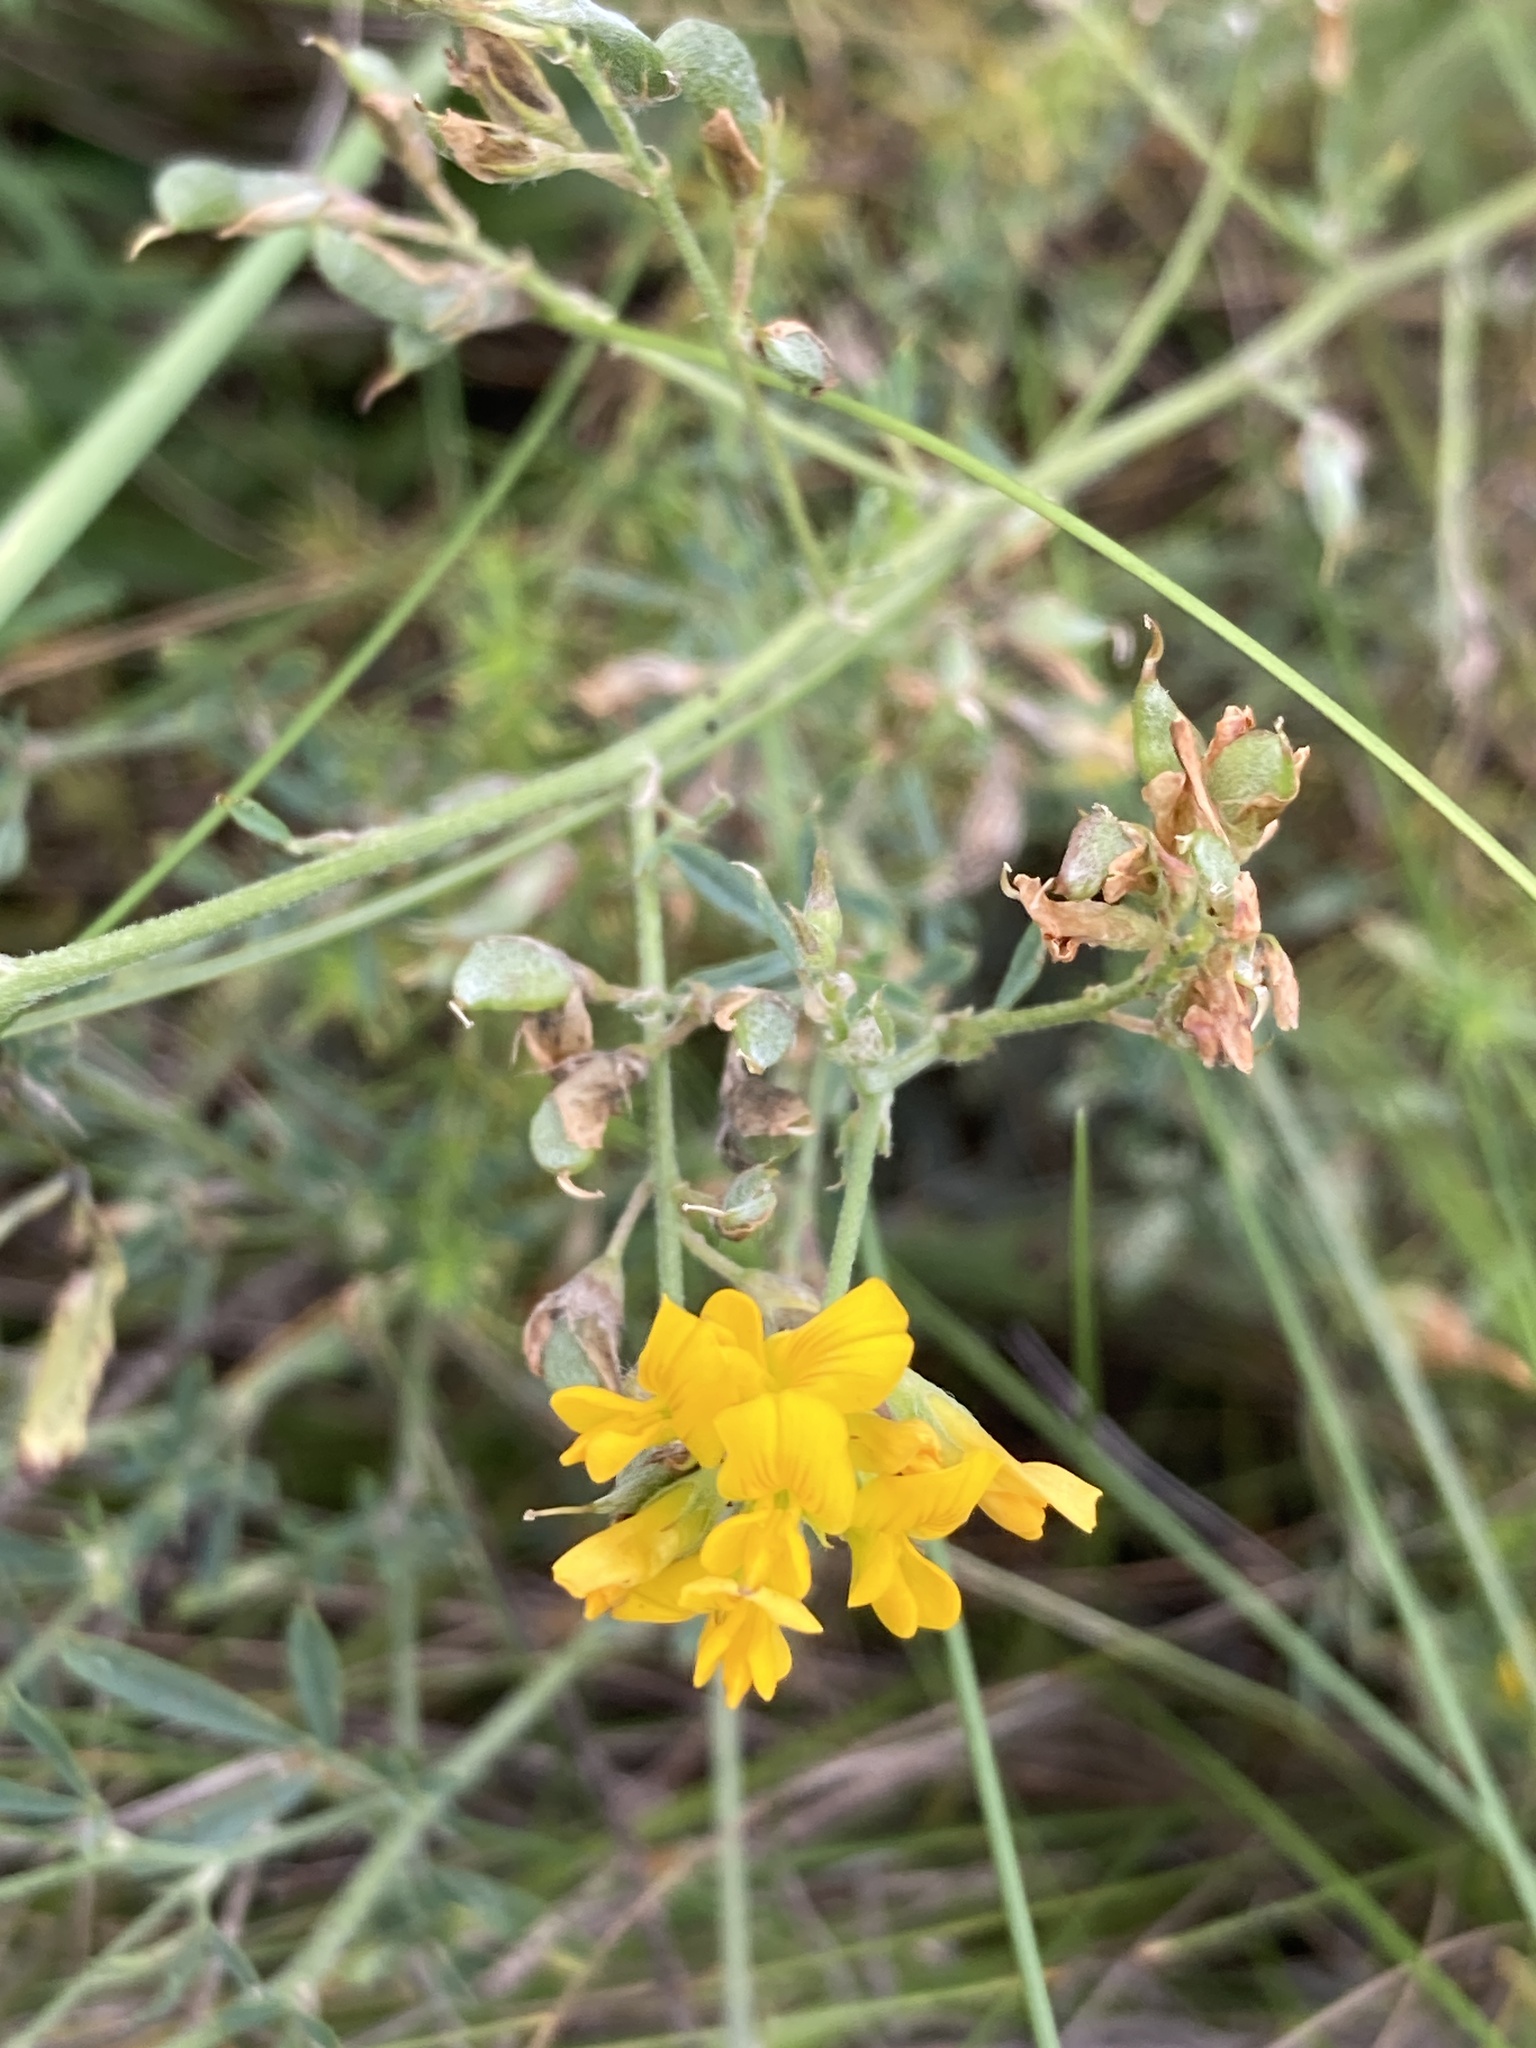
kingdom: Plantae
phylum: Tracheophyta
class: Magnoliopsida
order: Fabales
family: Fabaceae
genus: Medicago
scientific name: Medicago falcata
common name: Sickle medick
